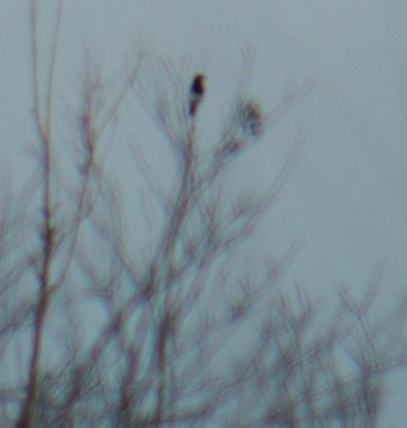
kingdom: Animalia
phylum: Chordata
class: Aves
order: Passeriformes
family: Corvidae
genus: Pica
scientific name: Pica hudsonia
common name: Black-billed magpie
